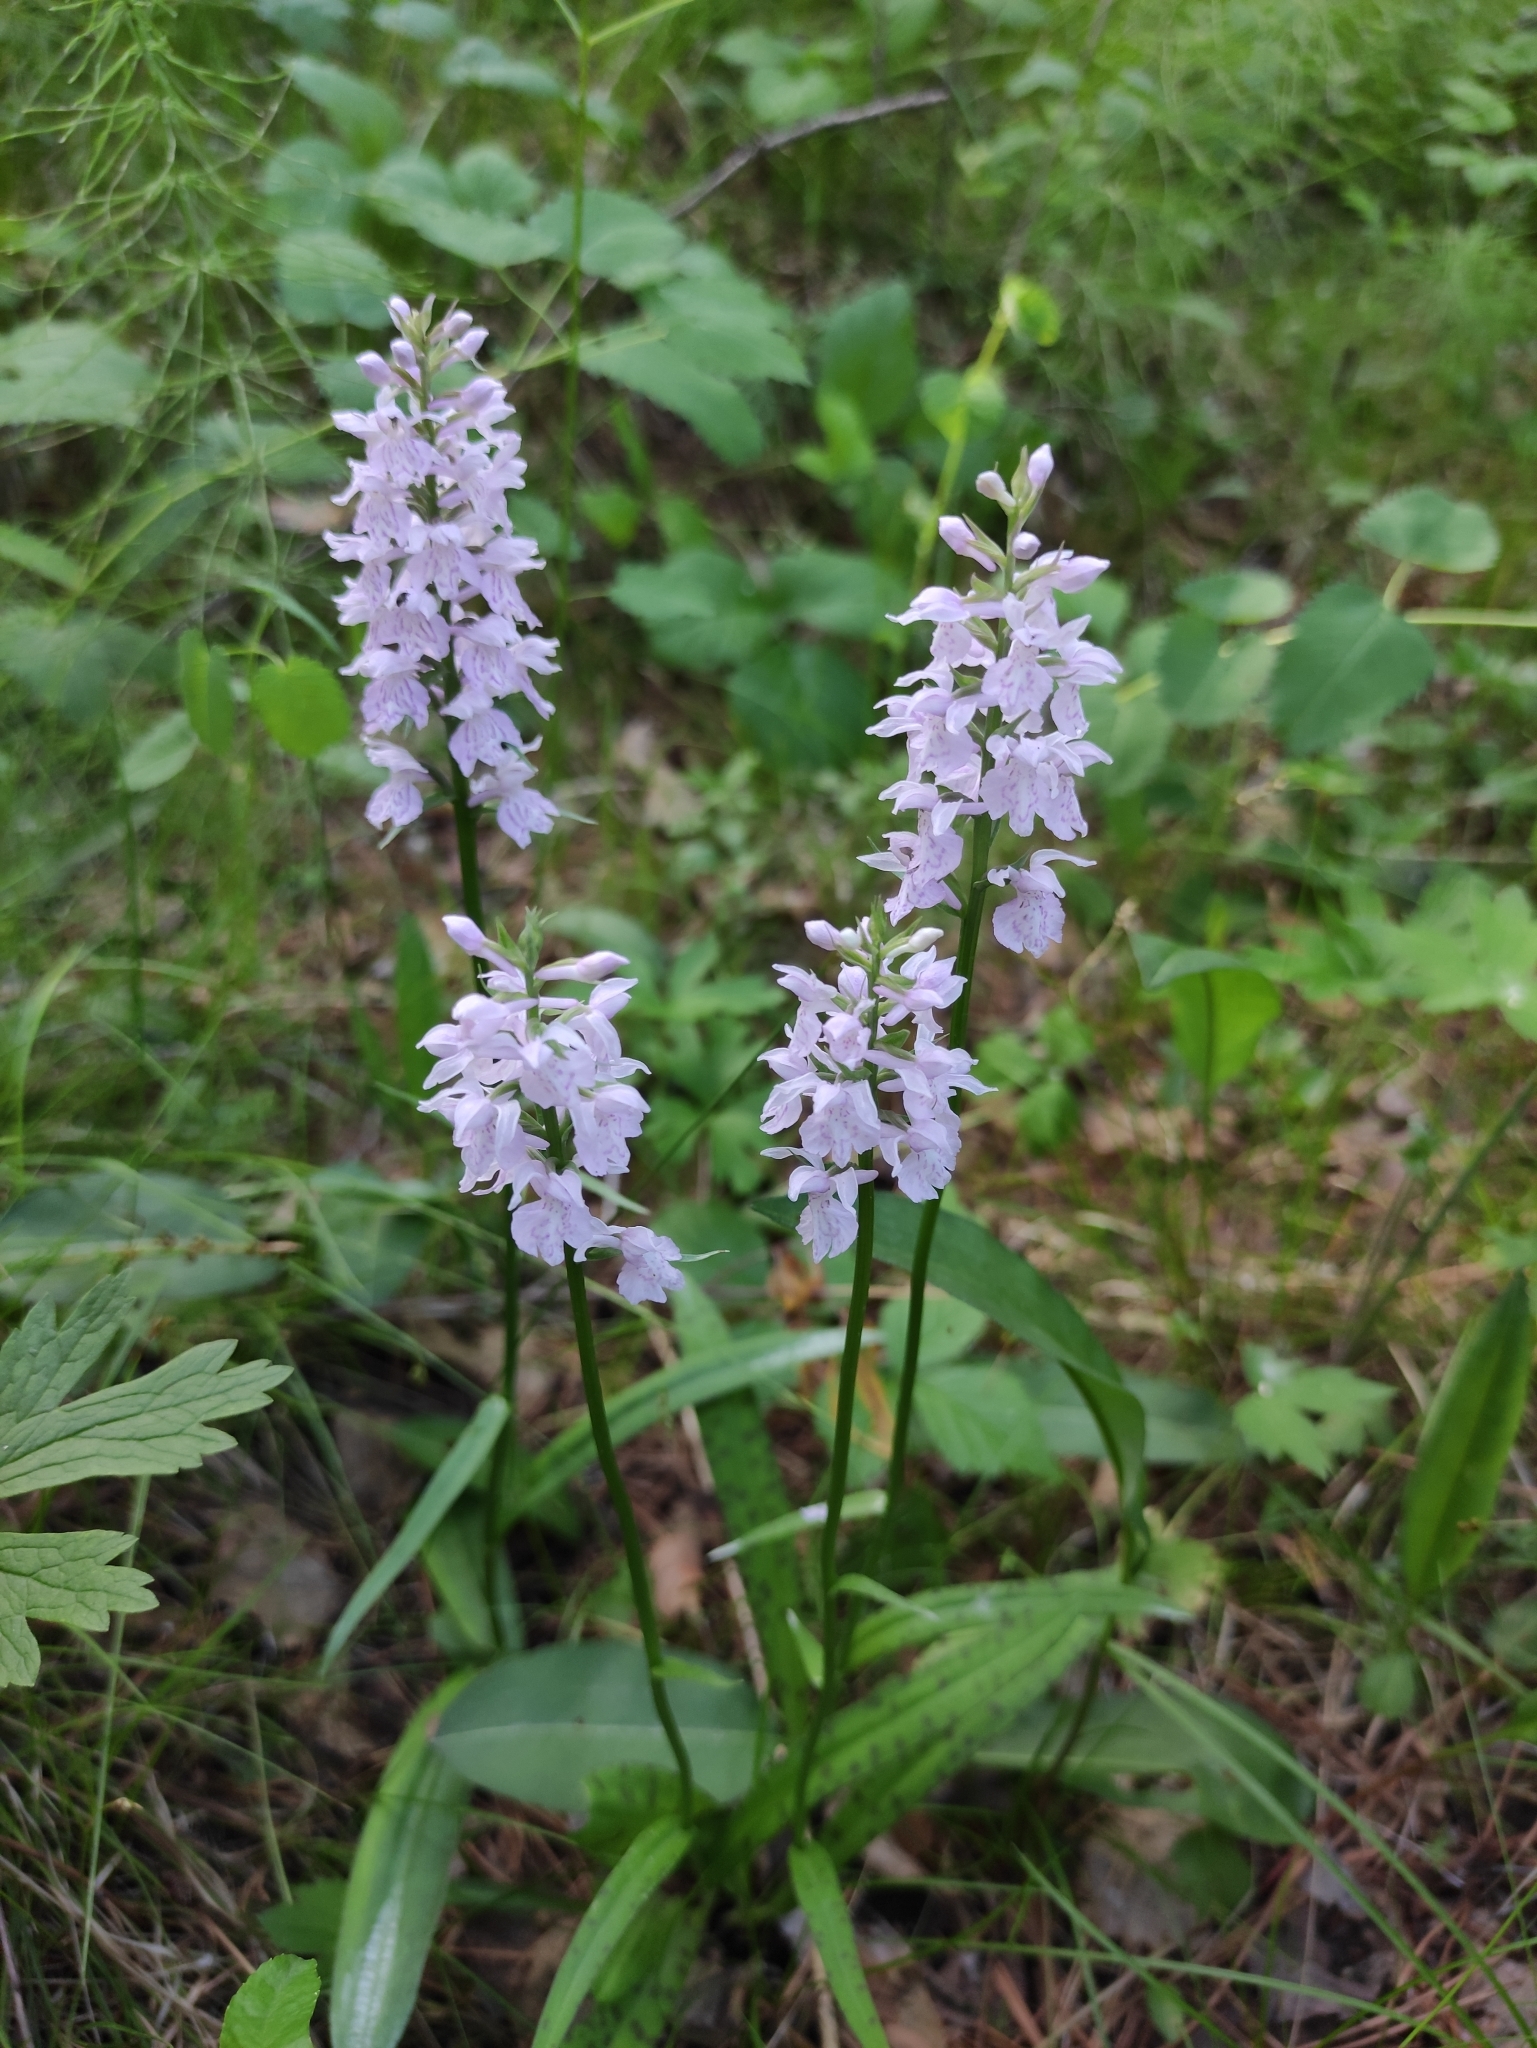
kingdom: Plantae
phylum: Tracheophyta
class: Liliopsida
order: Asparagales
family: Orchidaceae
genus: Dactylorhiza
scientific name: Dactylorhiza maculata
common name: Heath spotted-orchid
